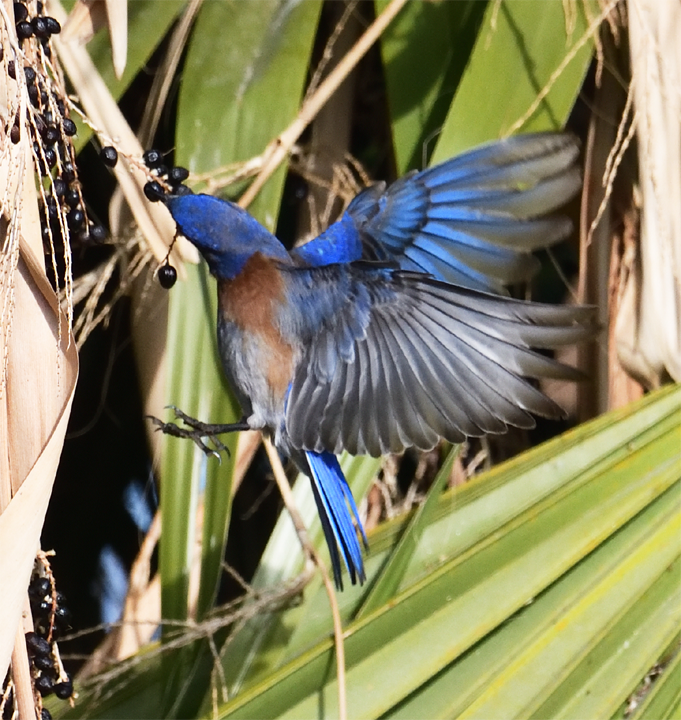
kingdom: Animalia
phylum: Chordata
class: Aves
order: Passeriformes
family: Turdidae
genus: Sialia
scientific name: Sialia mexicana
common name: Western bluebird
